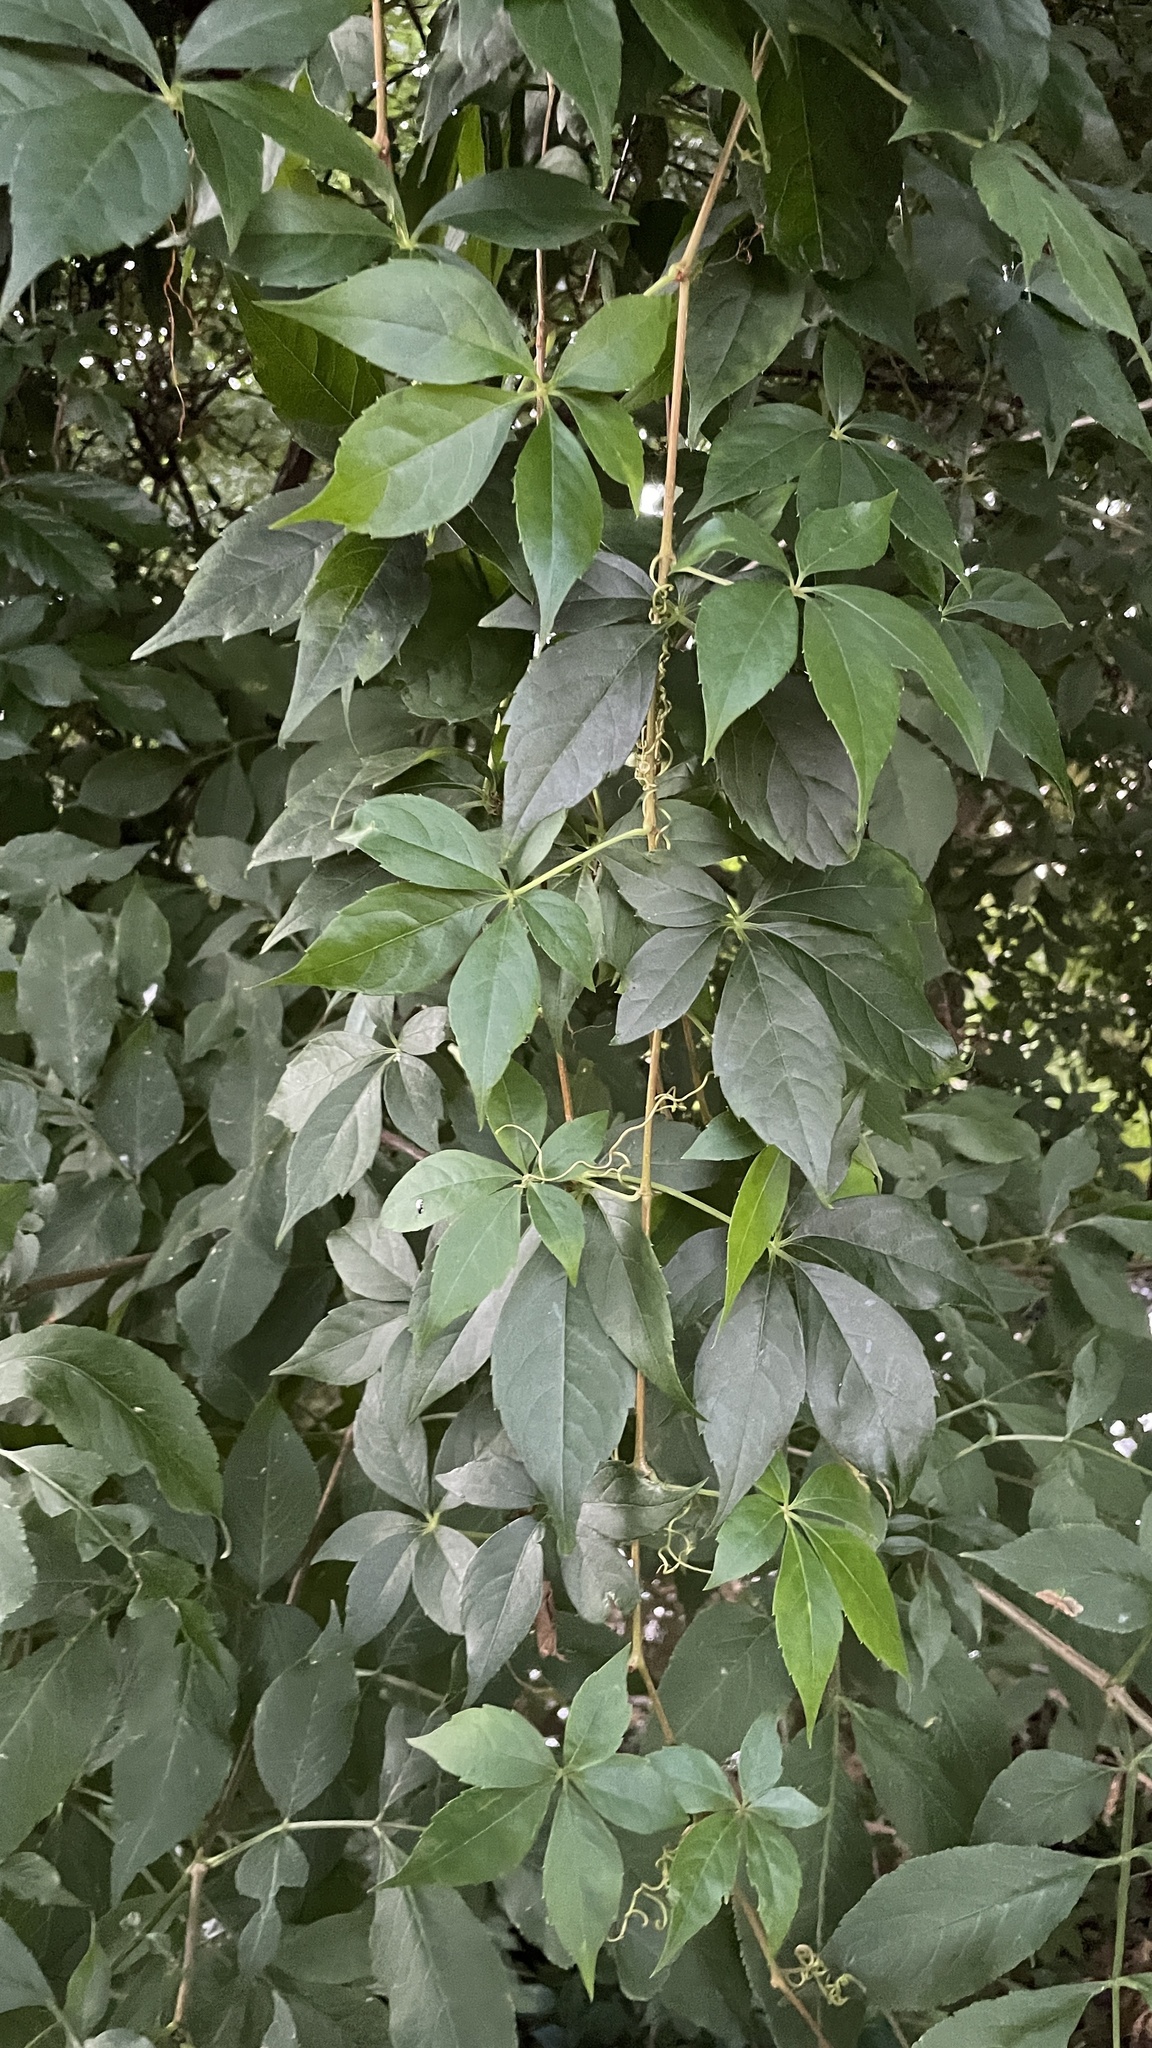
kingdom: Plantae
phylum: Tracheophyta
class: Magnoliopsida
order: Vitales
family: Vitaceae
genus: Parthenocissus
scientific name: Parthenocissus quinquefolia
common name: Virginia-creeper
